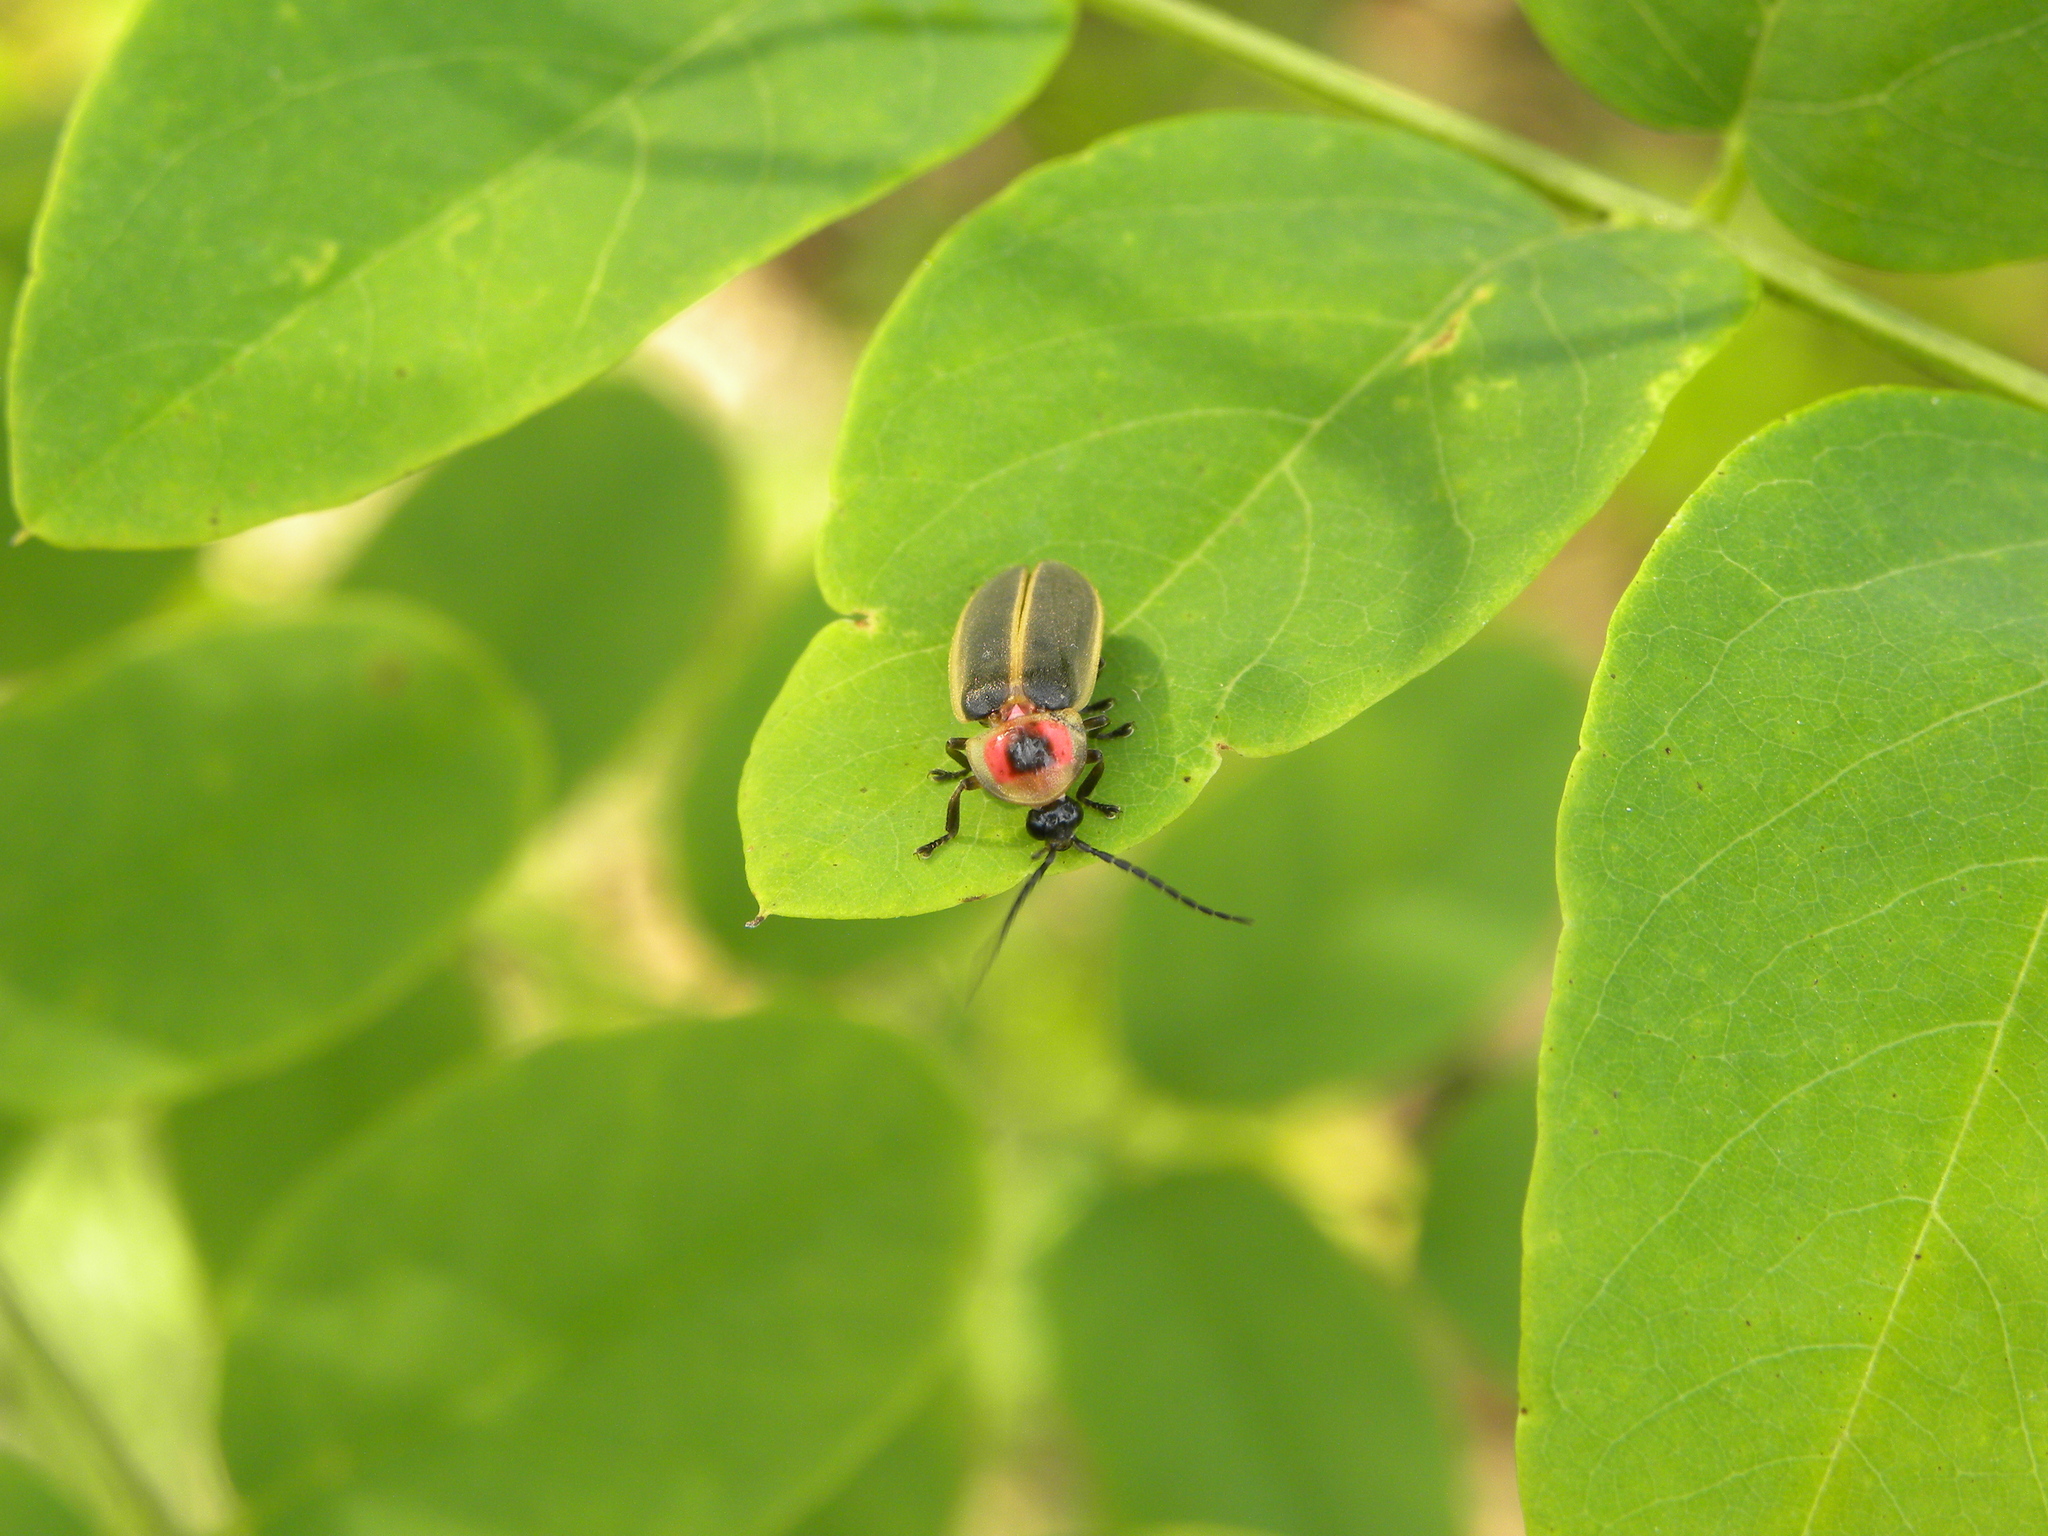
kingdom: Animalia
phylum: Arthropoda
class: Insecta
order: Coleoptera
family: Lampyridae
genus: Photinus
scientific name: Photinus pyralis
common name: Big dipper firefly
